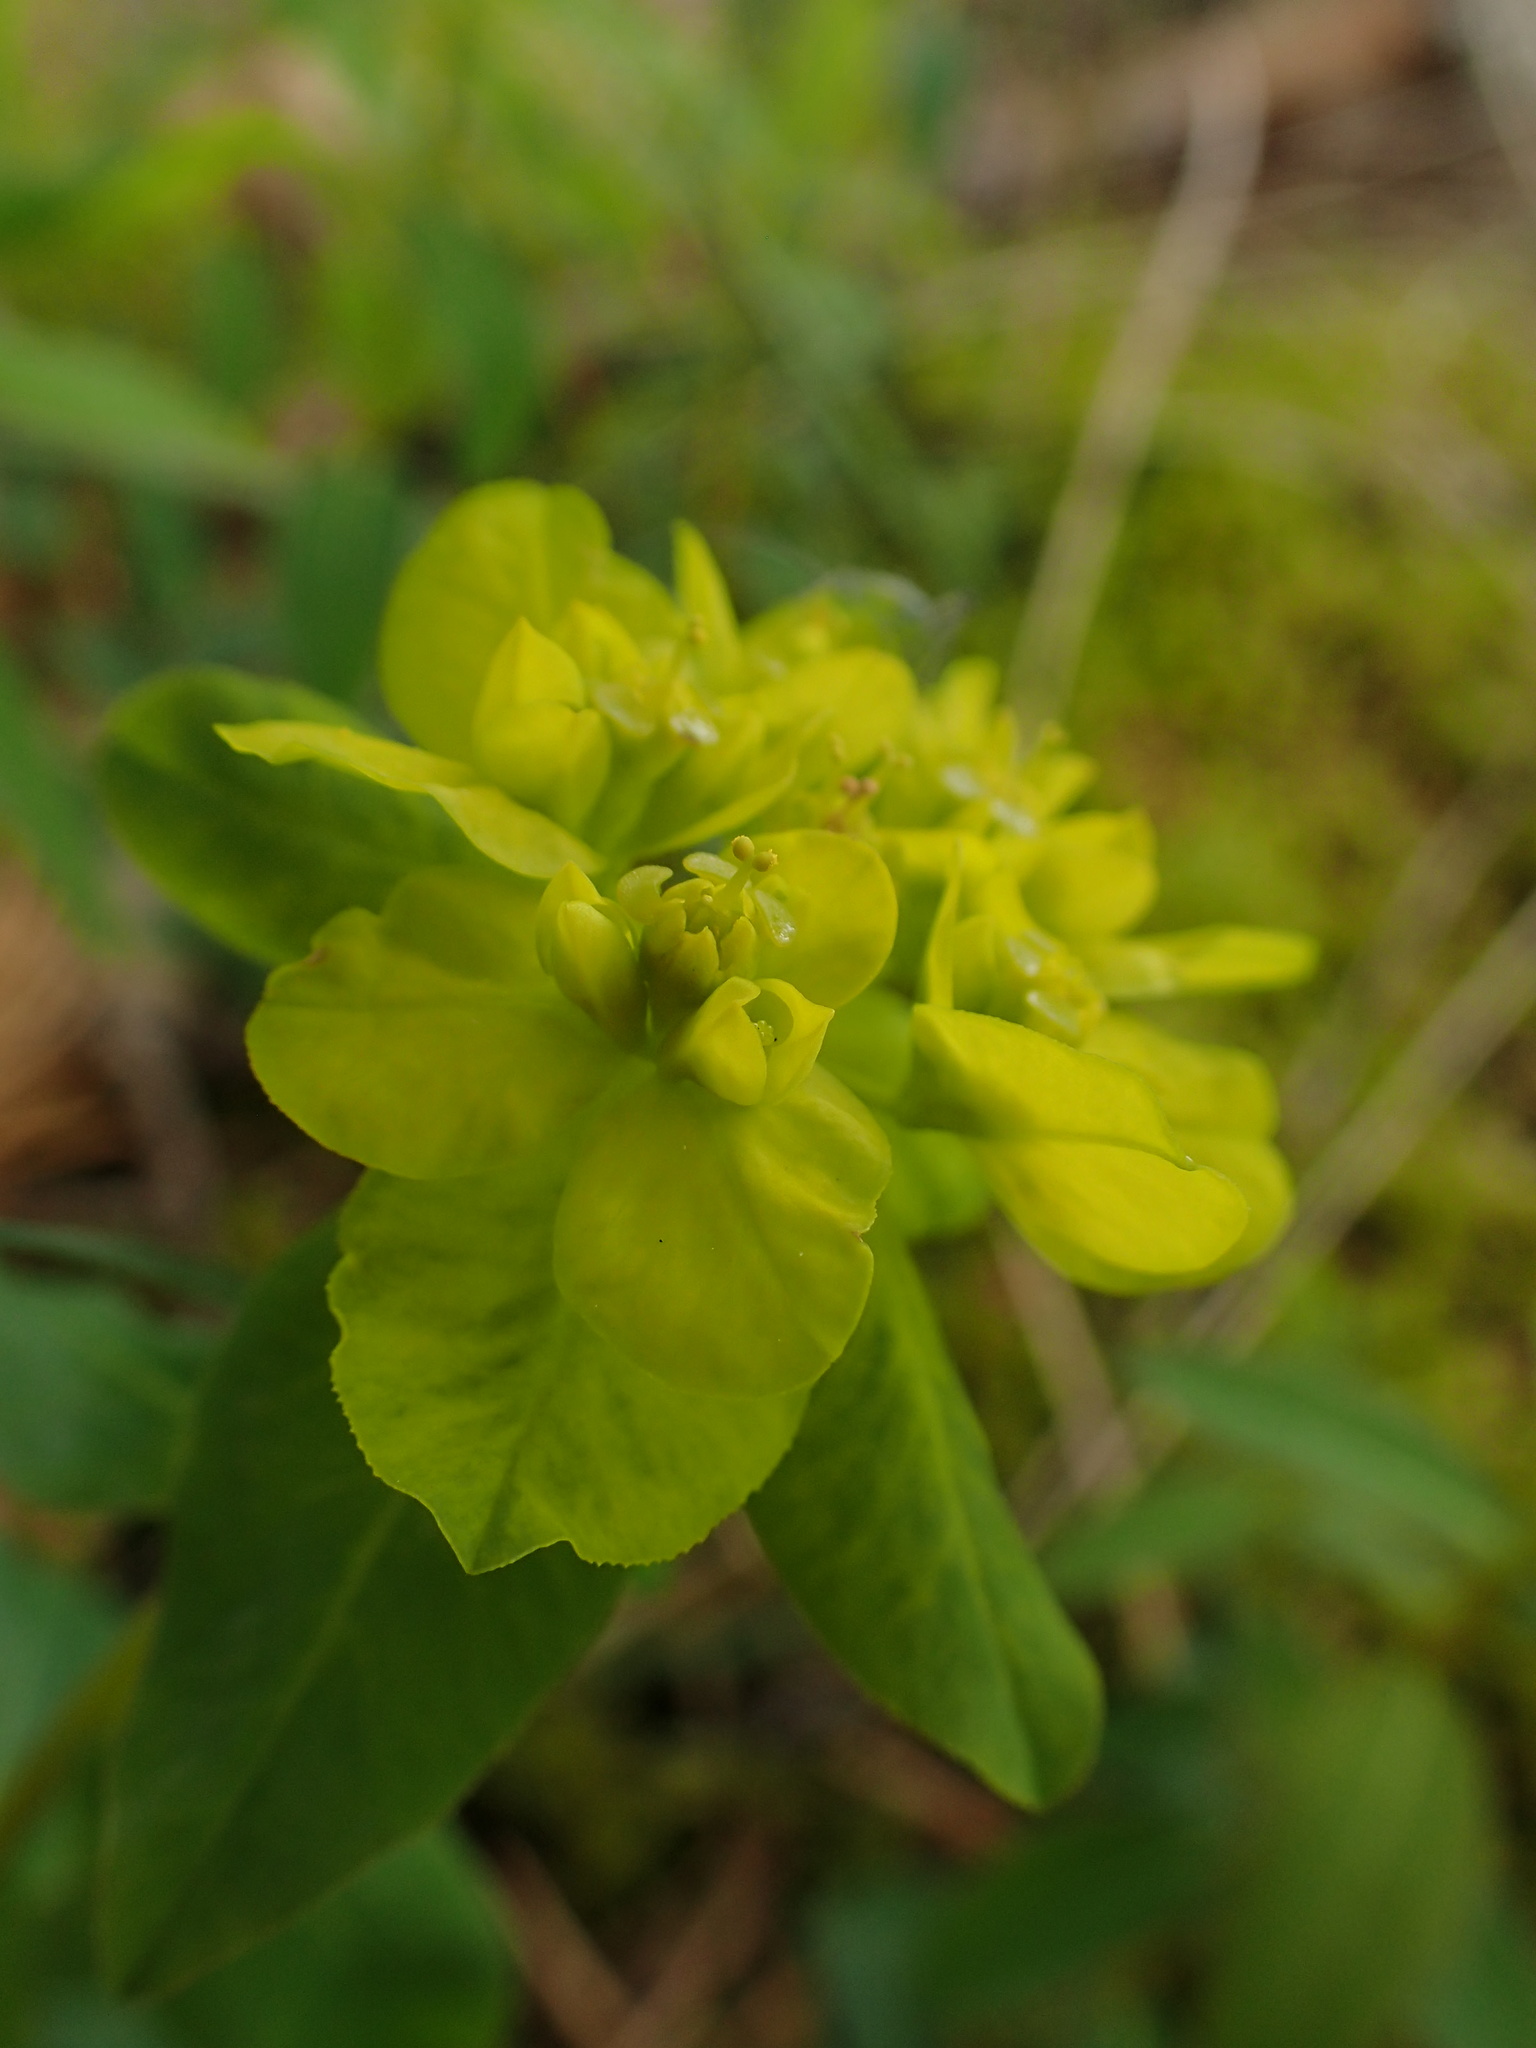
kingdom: Plantae
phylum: Tracheophyta
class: Magnoliopsida
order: Malpighiales
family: Euphorbiaceae
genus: Euphorbia
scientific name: Euphorbia verrucosa
